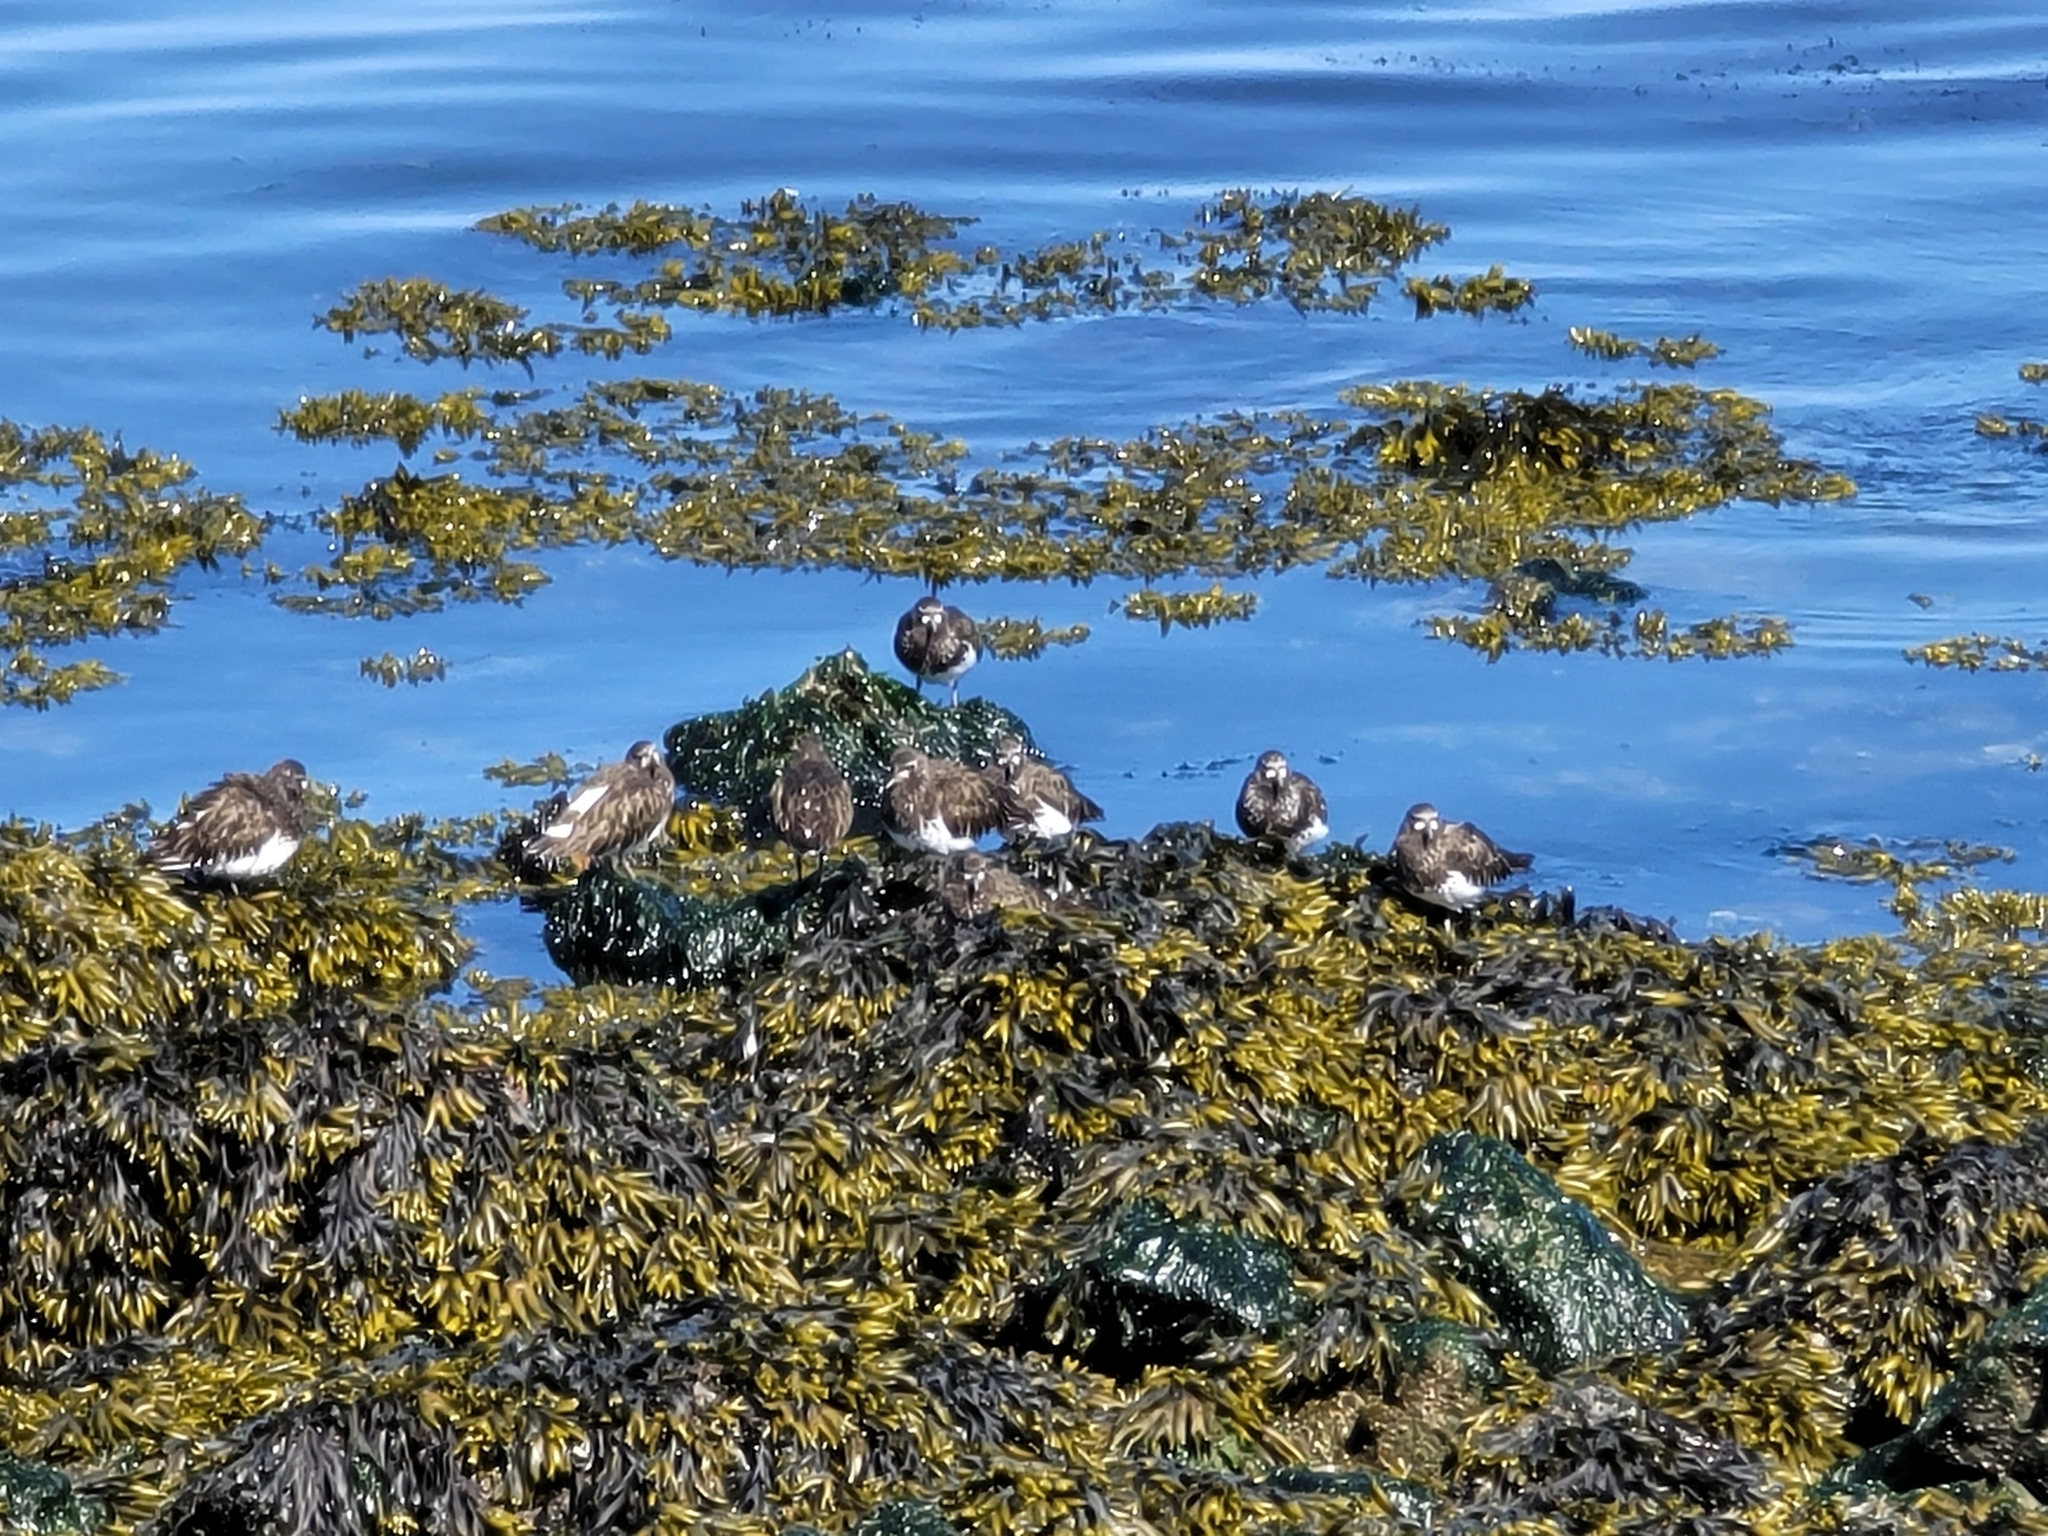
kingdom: Animalia
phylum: Chordata
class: Aves
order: Charadriiformes
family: Scolopacidae
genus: Arenaria
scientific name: Arenaria melanocephala
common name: Black turnstone
